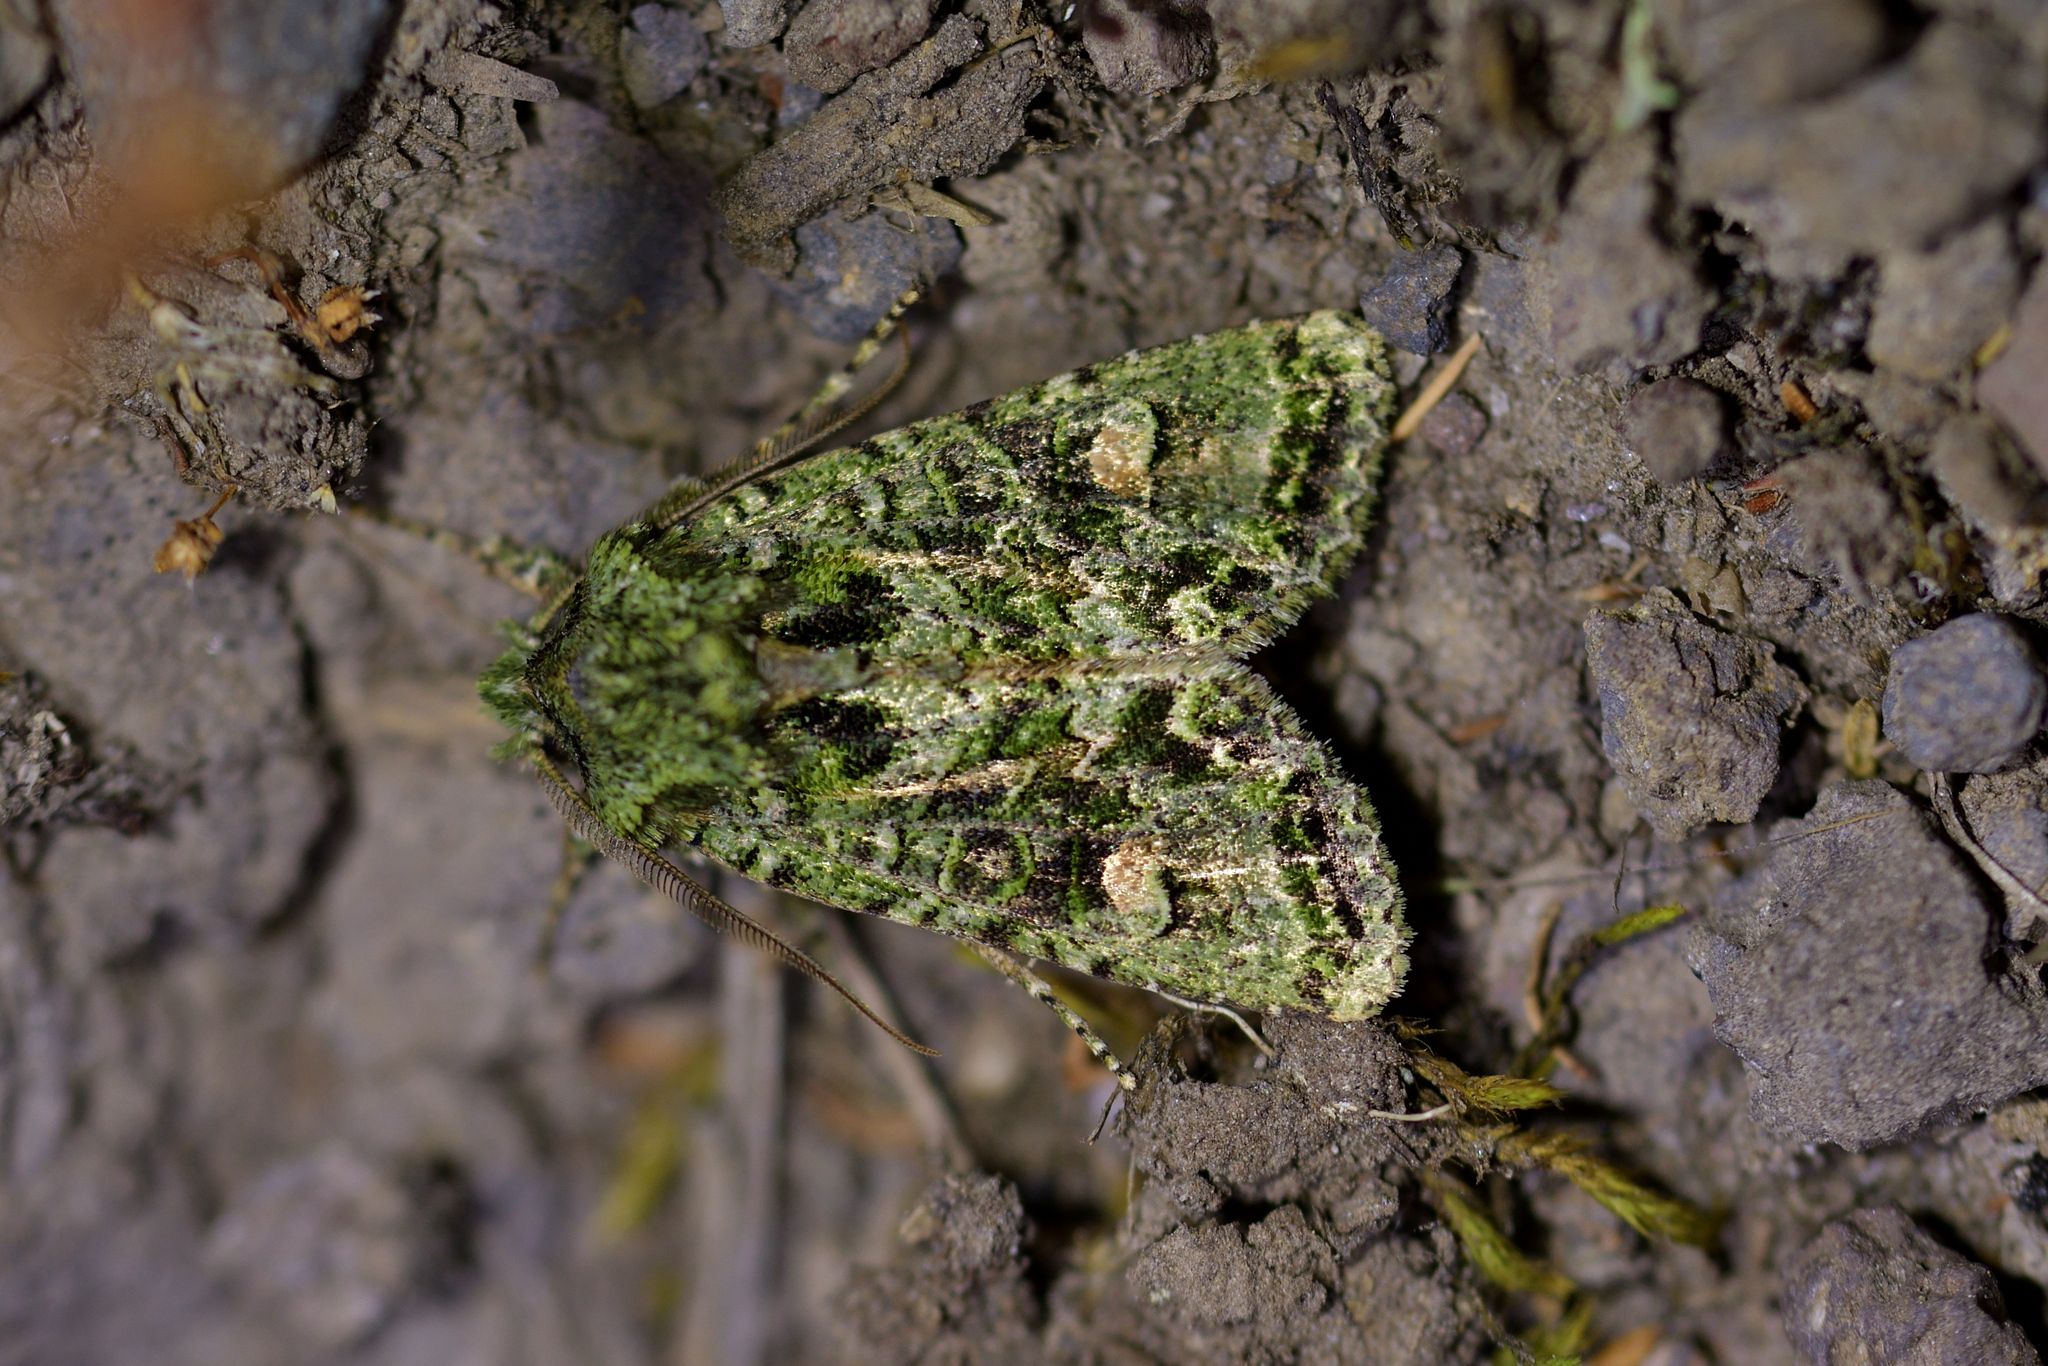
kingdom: Animalia
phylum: Arthropoda
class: Insecta
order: Lepidoptera
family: Noctuidae
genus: Ichneutica
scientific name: Ichneutica
